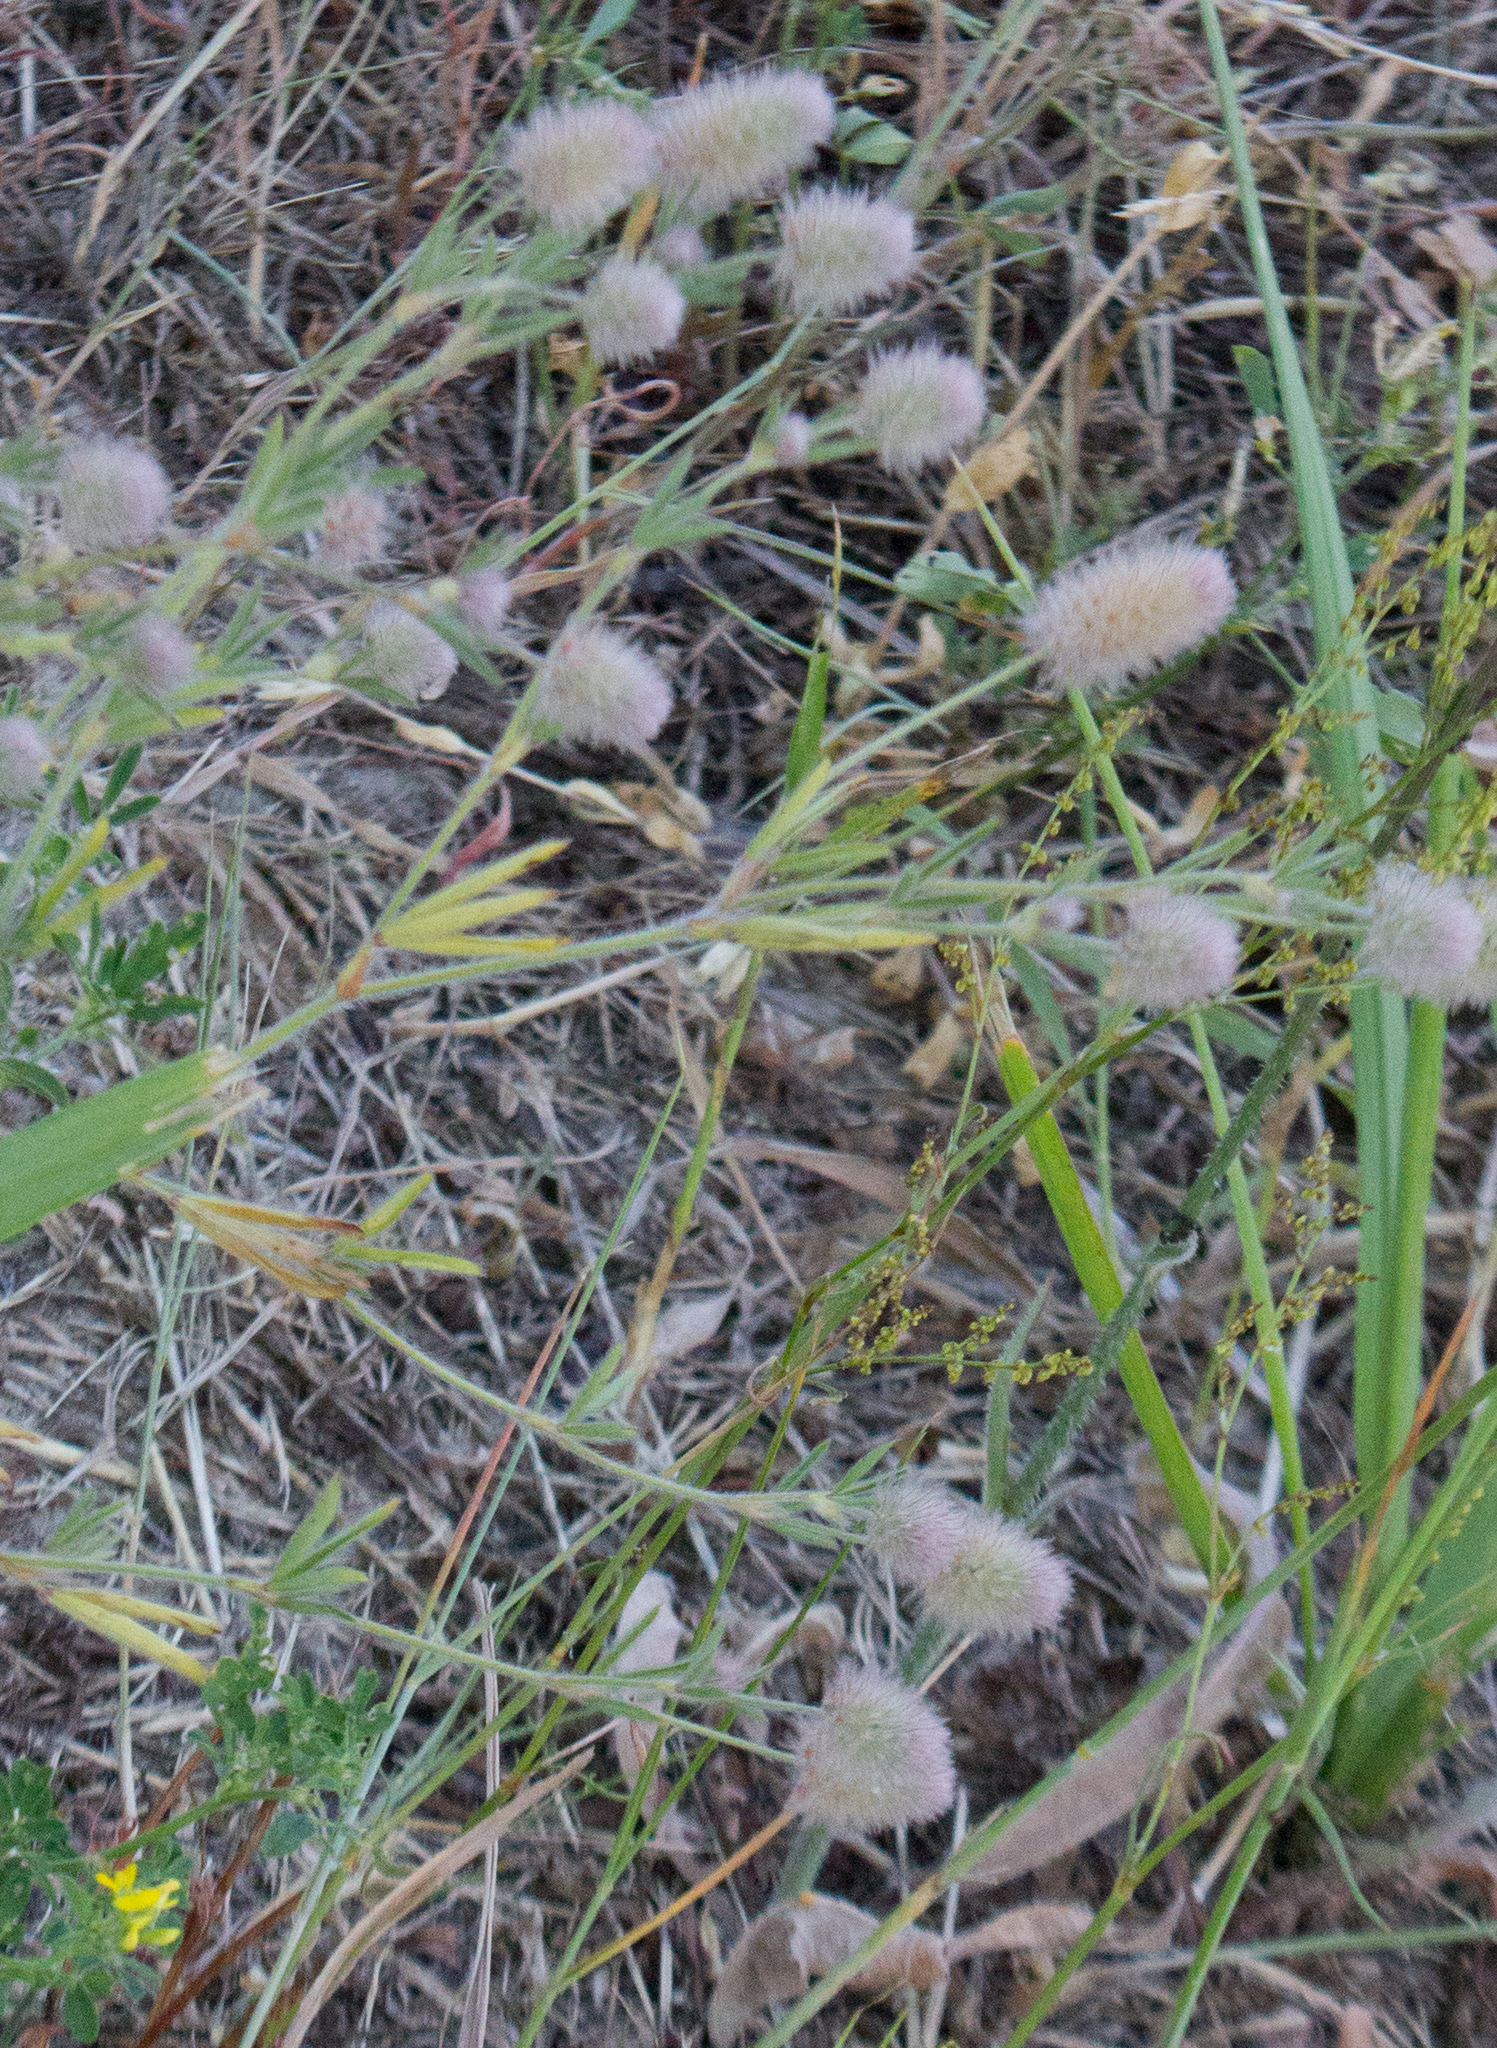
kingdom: Plantae
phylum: Tracheophyta
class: Magnoliopsida
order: Fabales
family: Fabaceae
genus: Trifolium
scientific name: Trifolium arvense
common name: Hare's-foot clover
